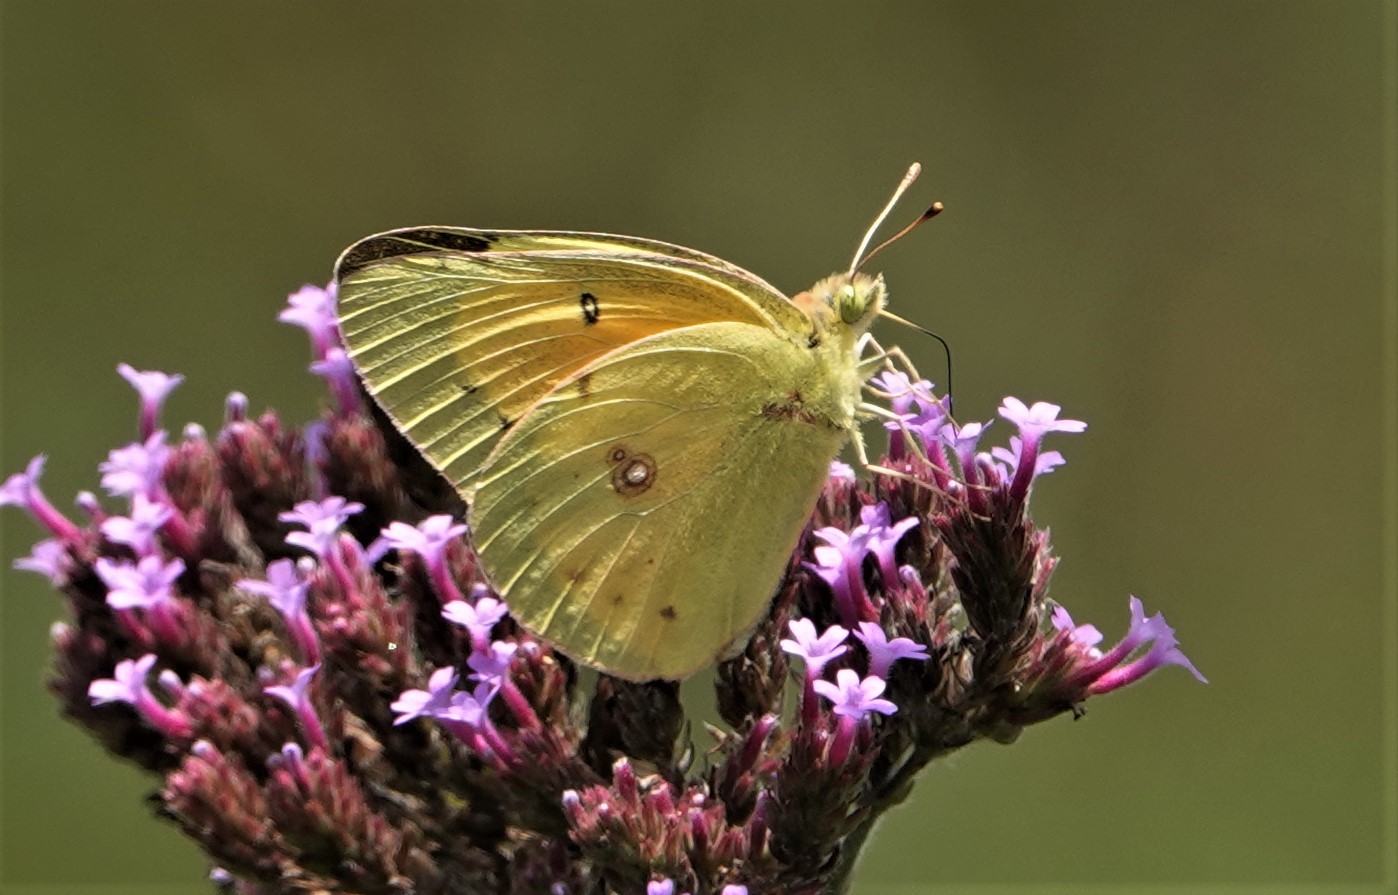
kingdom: Animalia
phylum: Arthropoda
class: Insecta
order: Lepidoptera
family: Pieridae
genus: Colias
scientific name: Colias eurytheme
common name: Alfalfa butterfly
